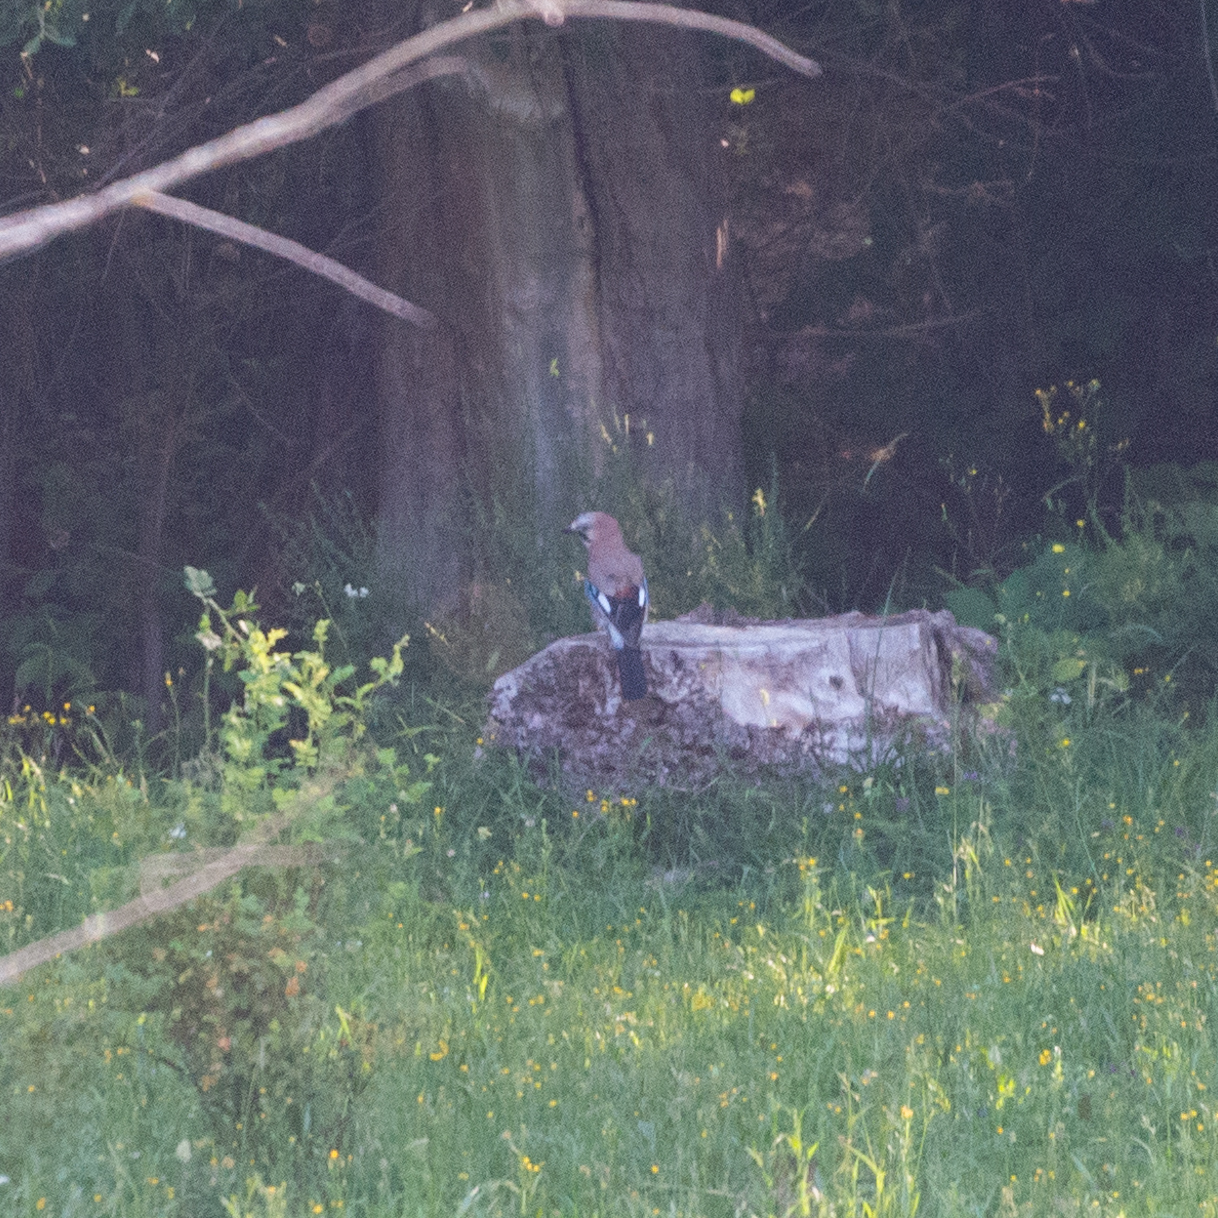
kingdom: Animalia
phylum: Chordata
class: Aves
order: Passeriformes
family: Corvidae
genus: Garrulus
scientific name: Garrulus glandarius
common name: Eurasian jay
